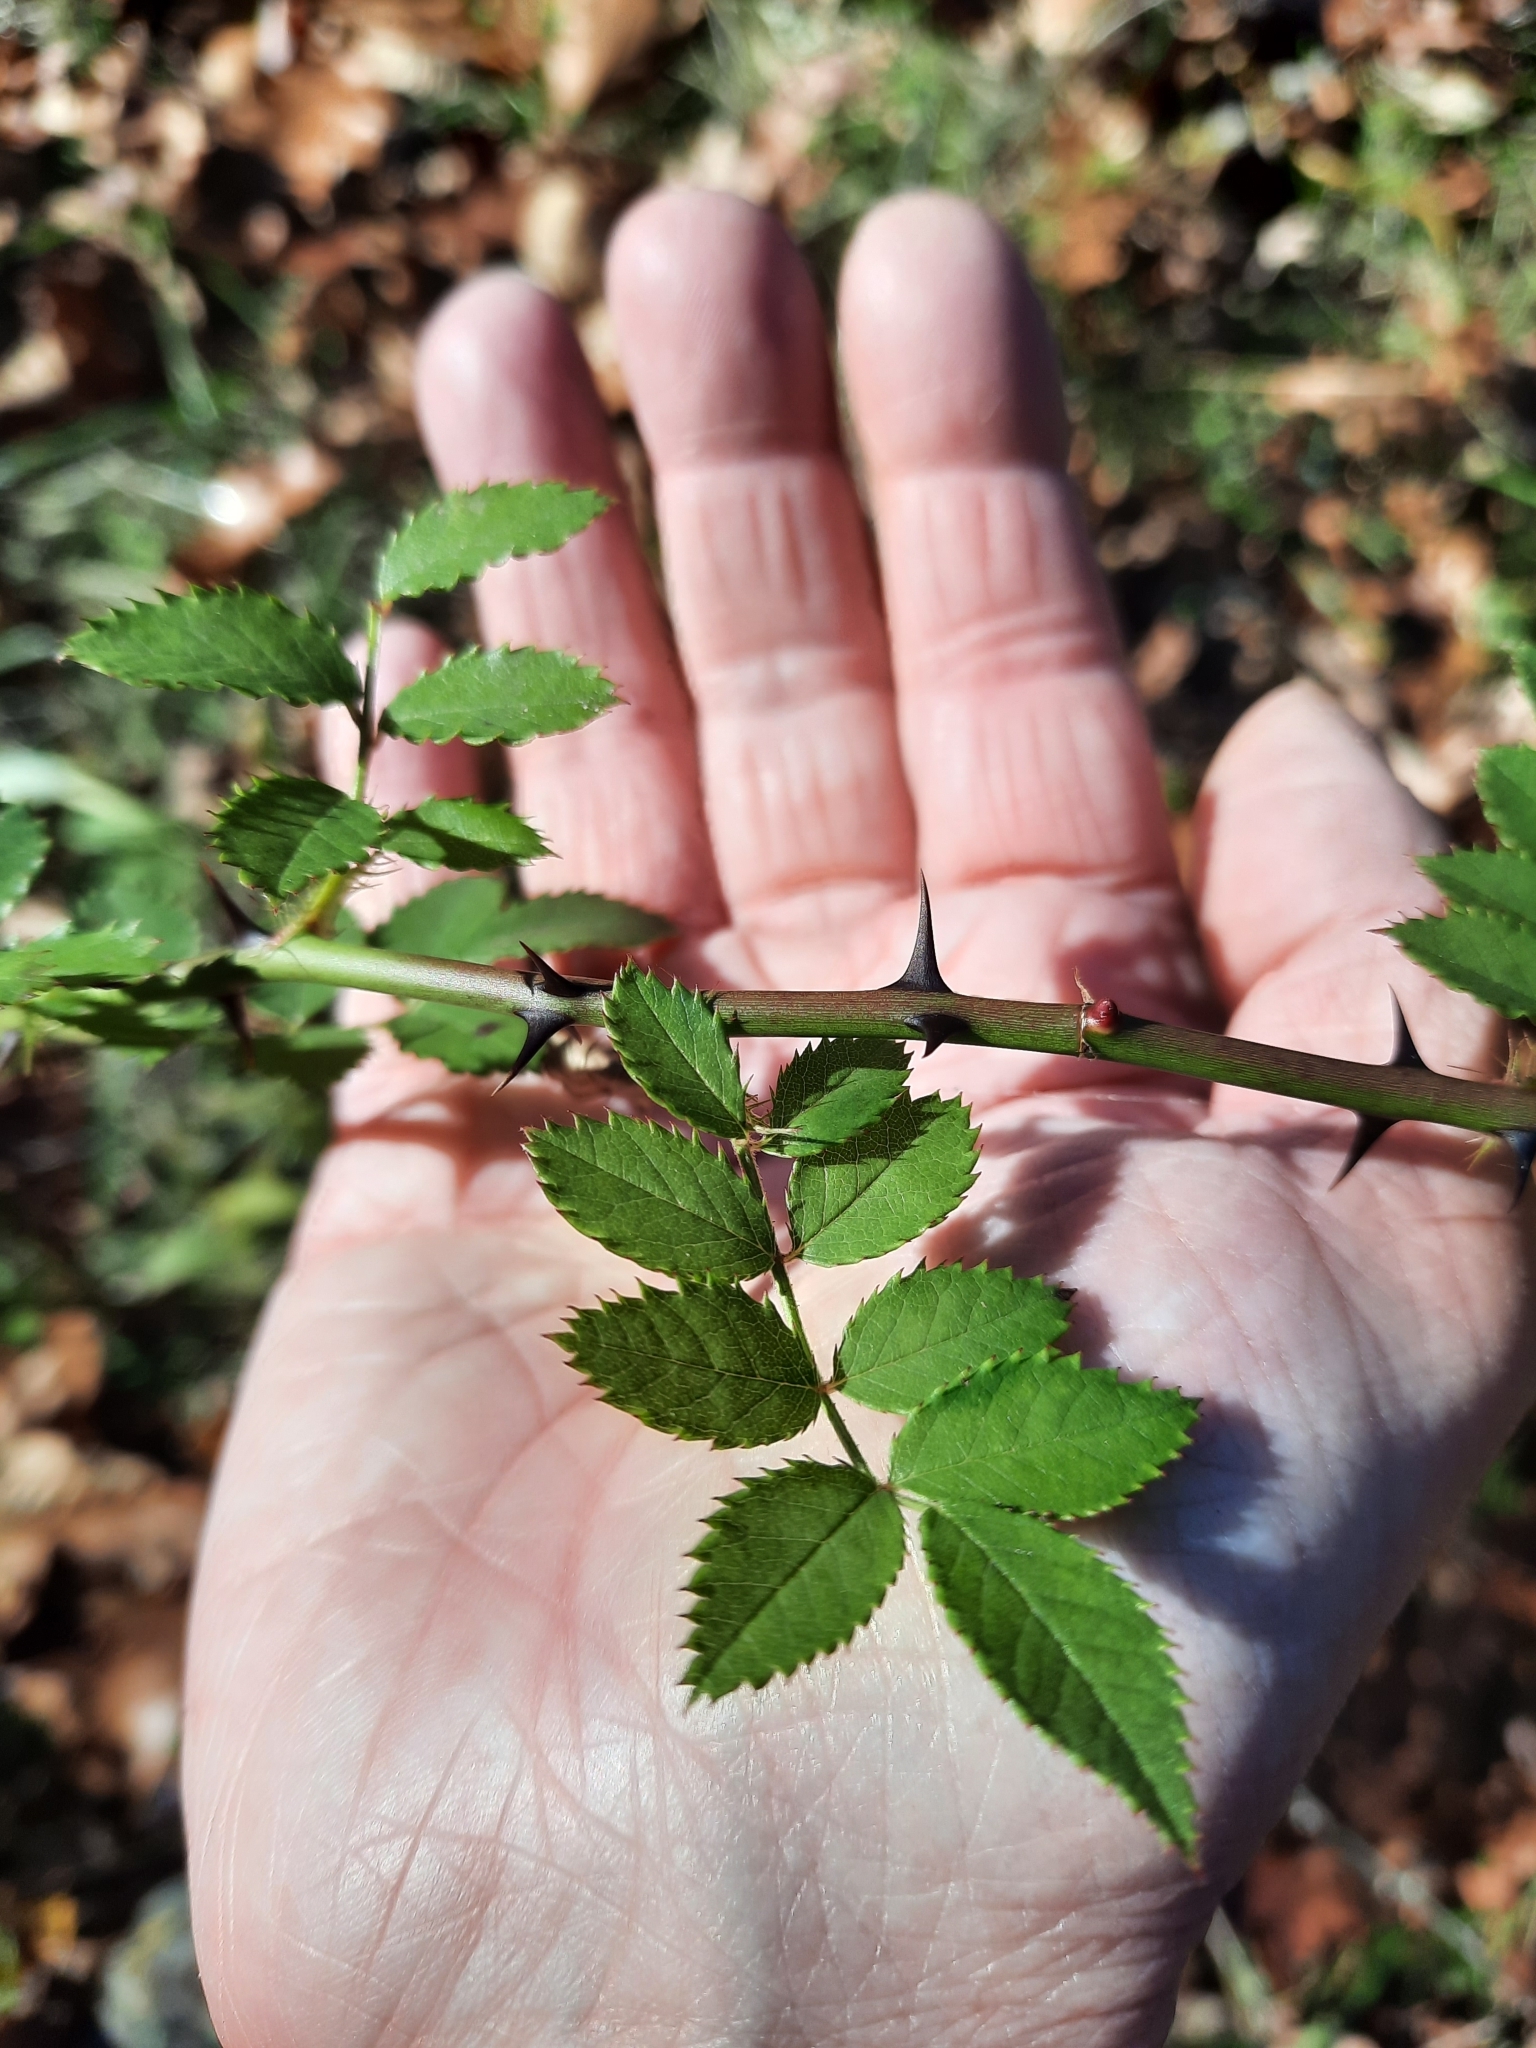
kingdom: Plantae
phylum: Tracheophyta
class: Magnoliopsida
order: Rosales
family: Rosaceae
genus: Rosa
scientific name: Rosa multiflora
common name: Multiflora rose
